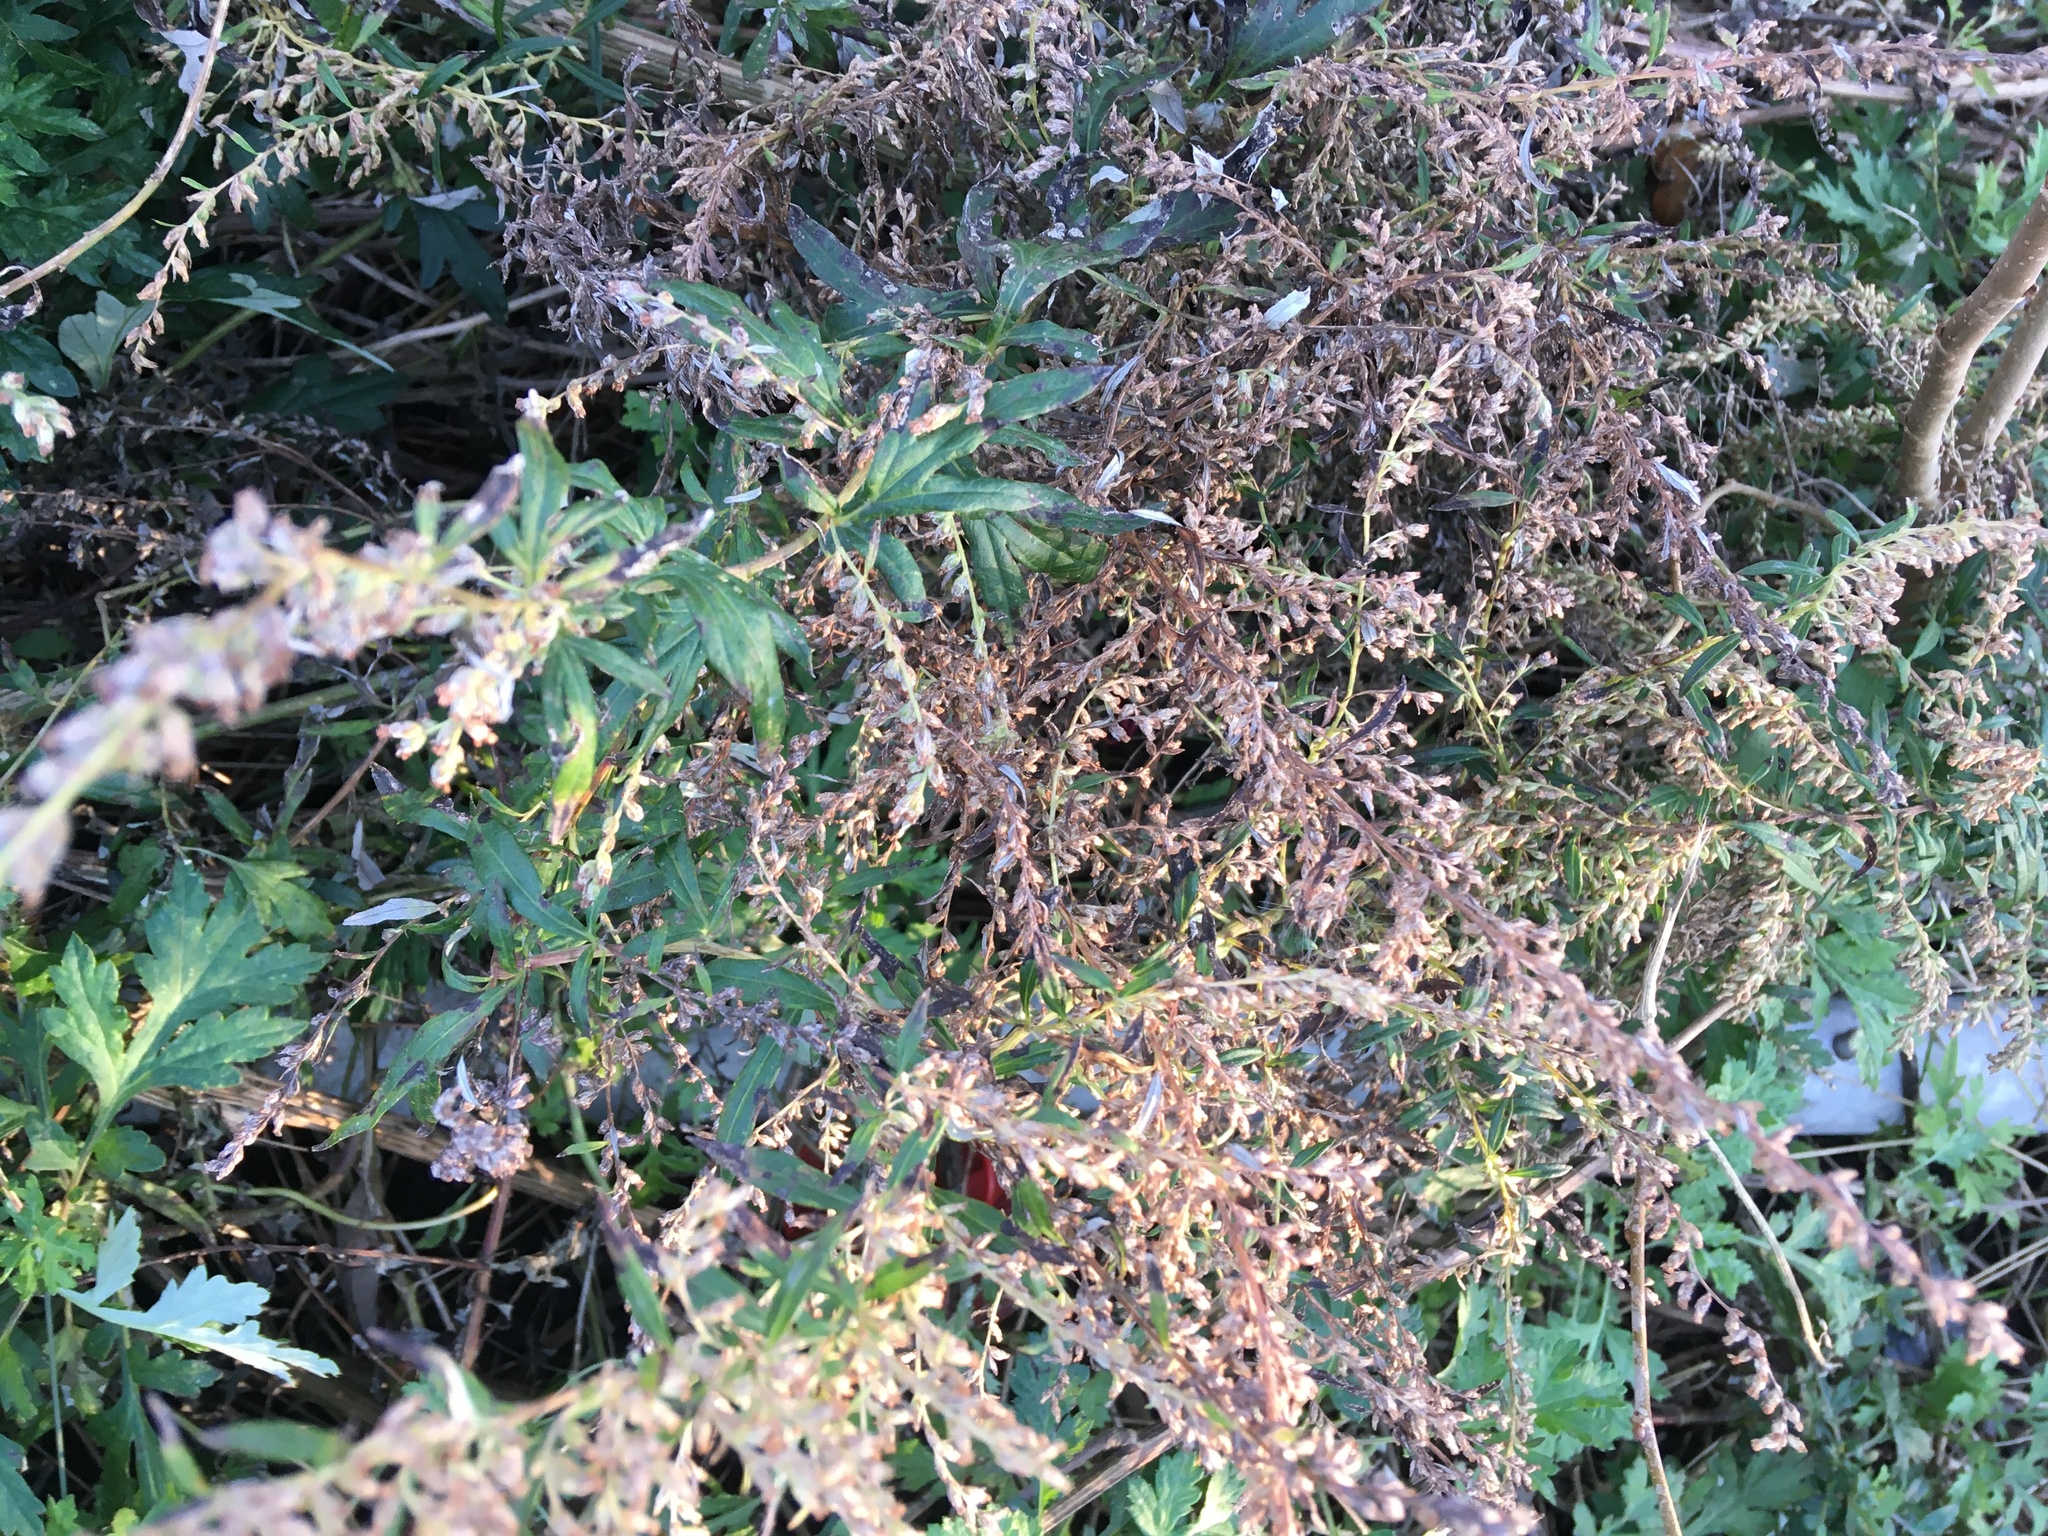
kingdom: Plantae
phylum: Tracheophyta
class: Magnoliopsida
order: Asterales
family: Asteraceae
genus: Artemisia
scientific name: Artemisia vulgaris
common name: Mugwort
